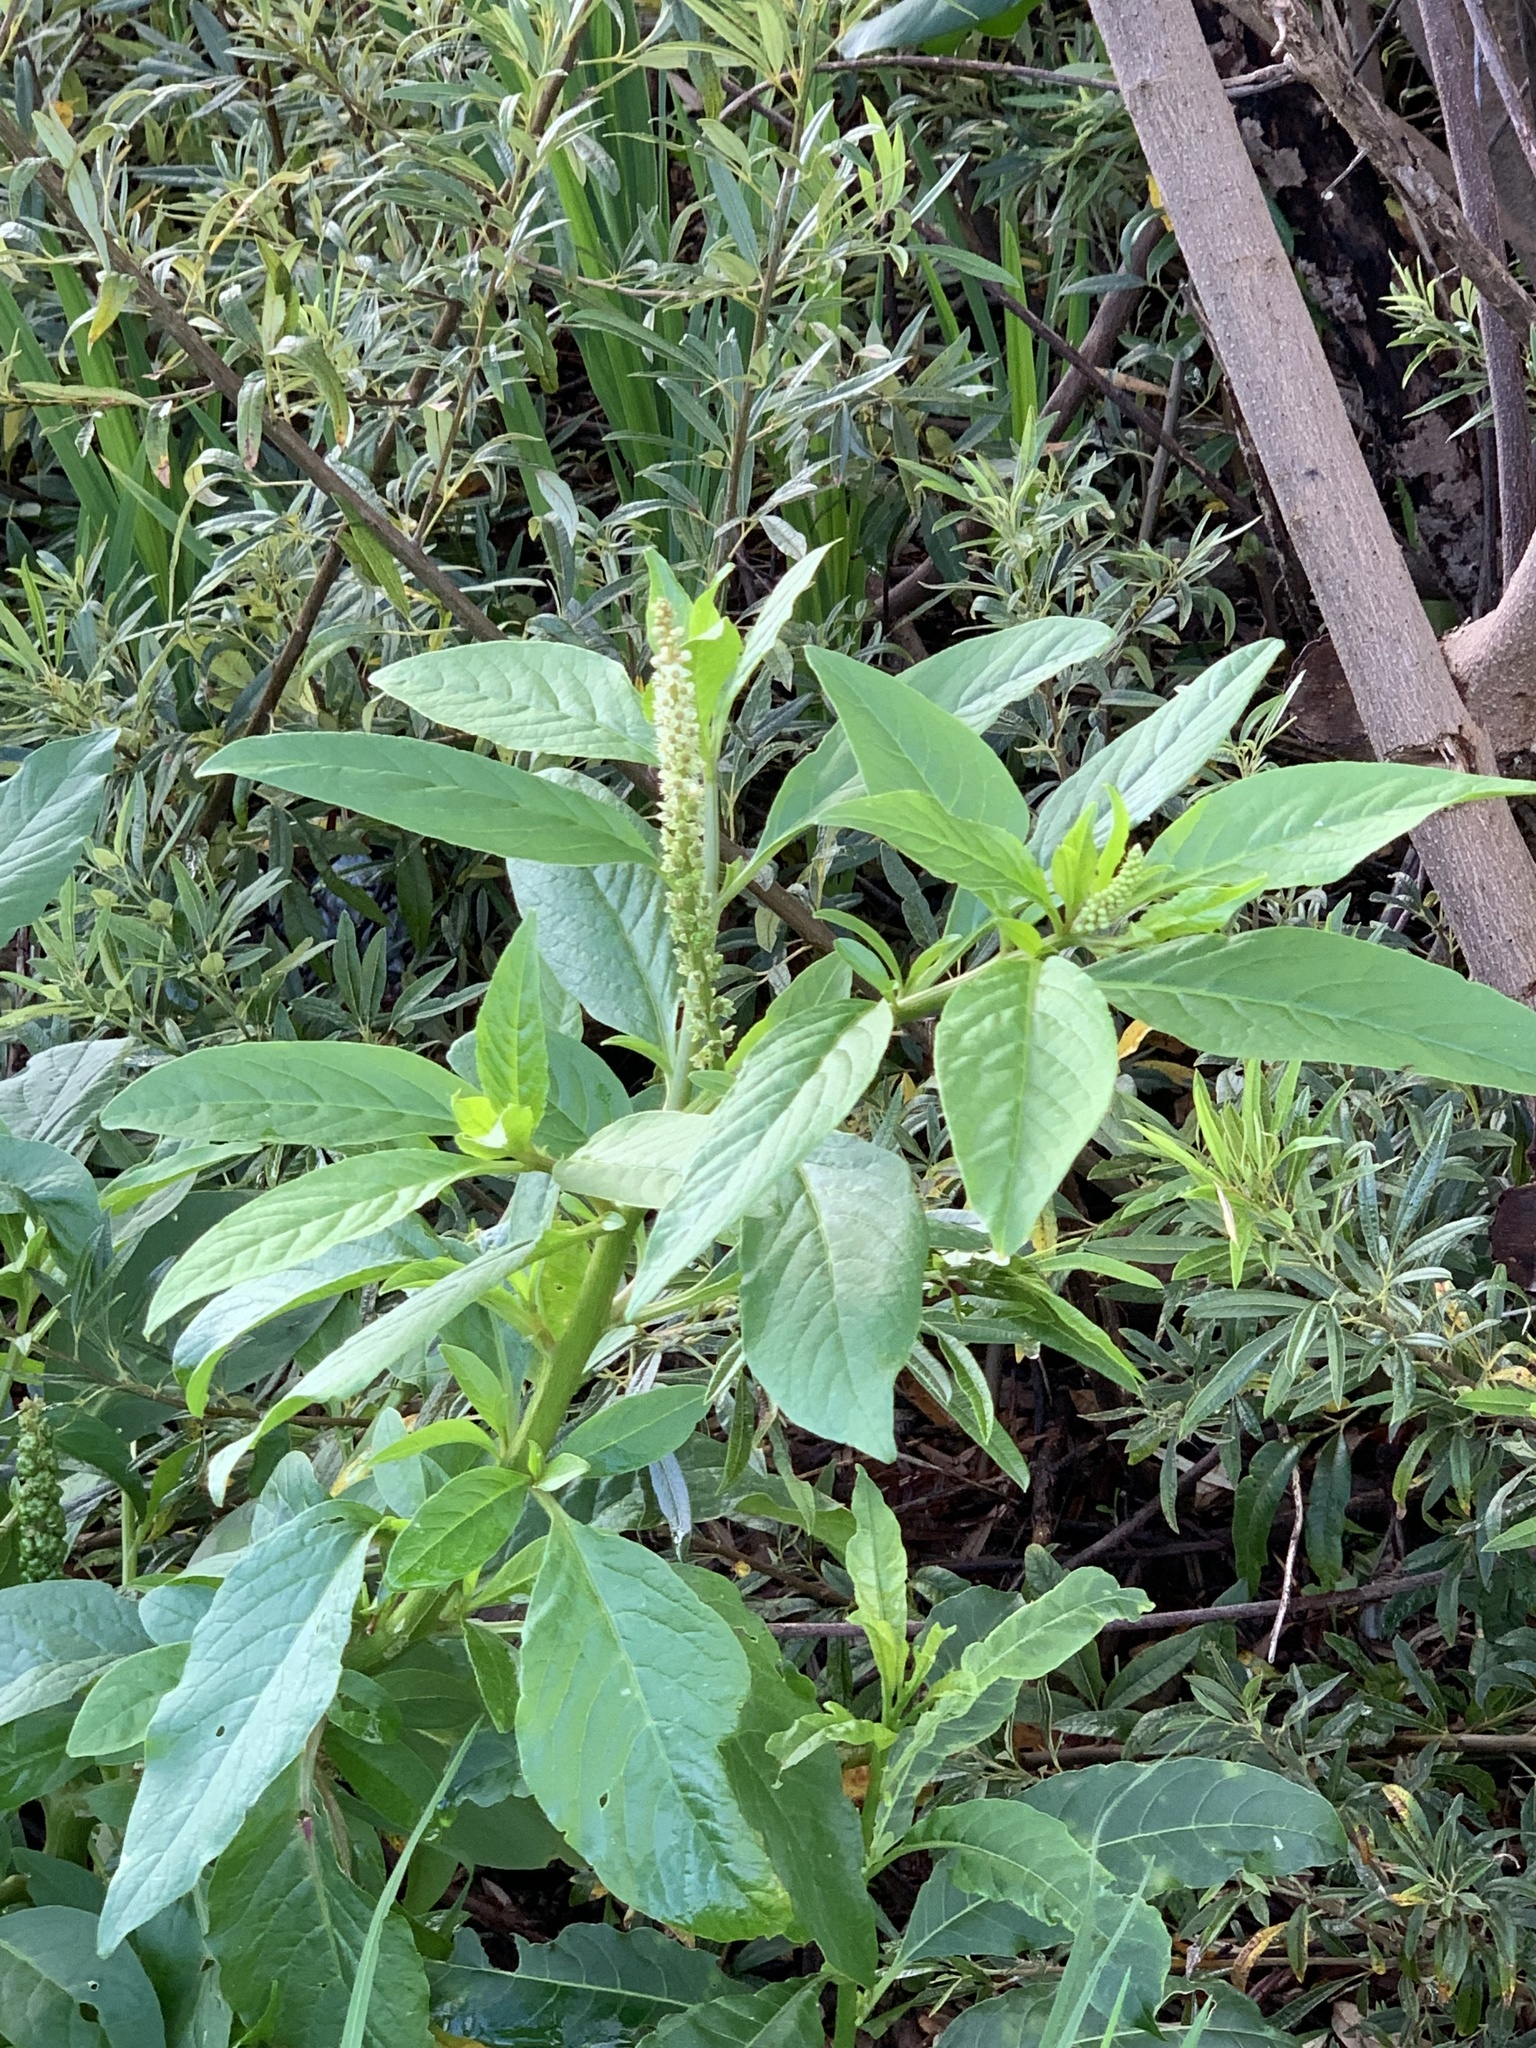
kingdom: Plantae
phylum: Tracheophyta
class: Magnoliopsida
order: Caryophyllales
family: Phytolaccaceae
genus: Phytolacca
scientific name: Phytolacca icosandra
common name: Button pokeweed
